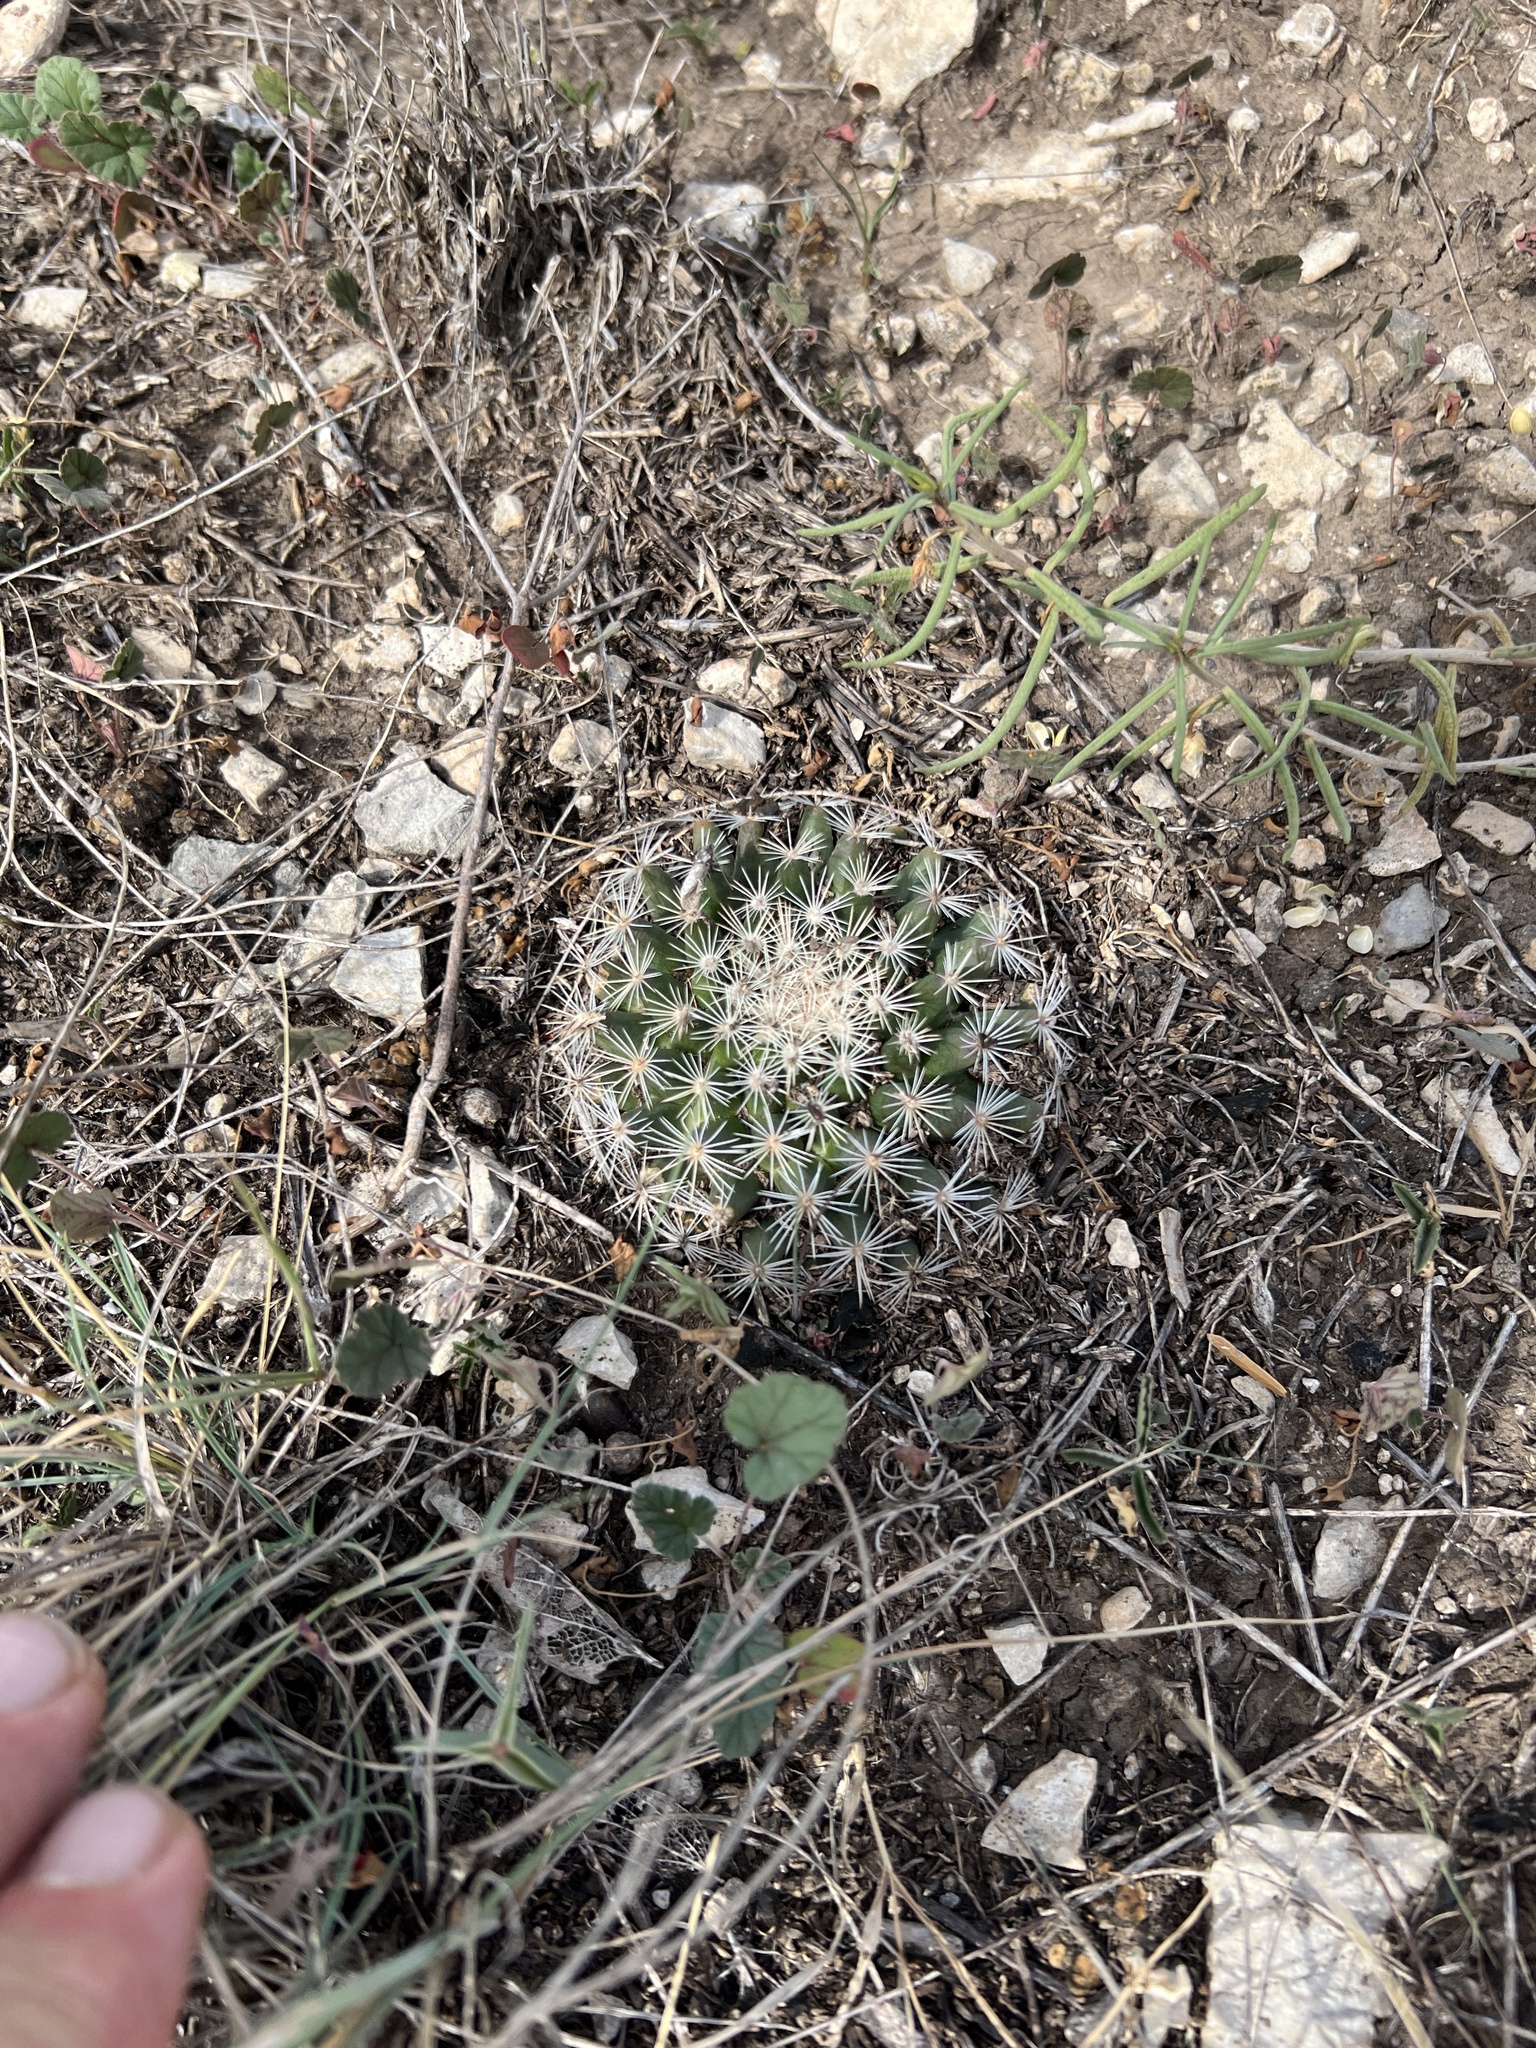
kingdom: Plantae
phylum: Tracheophyta
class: Magnoliopsida
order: Caryophyllales
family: Cactaceae
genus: Mammillaria
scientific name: Mammillaria heyderi
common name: Little nipple cactus
